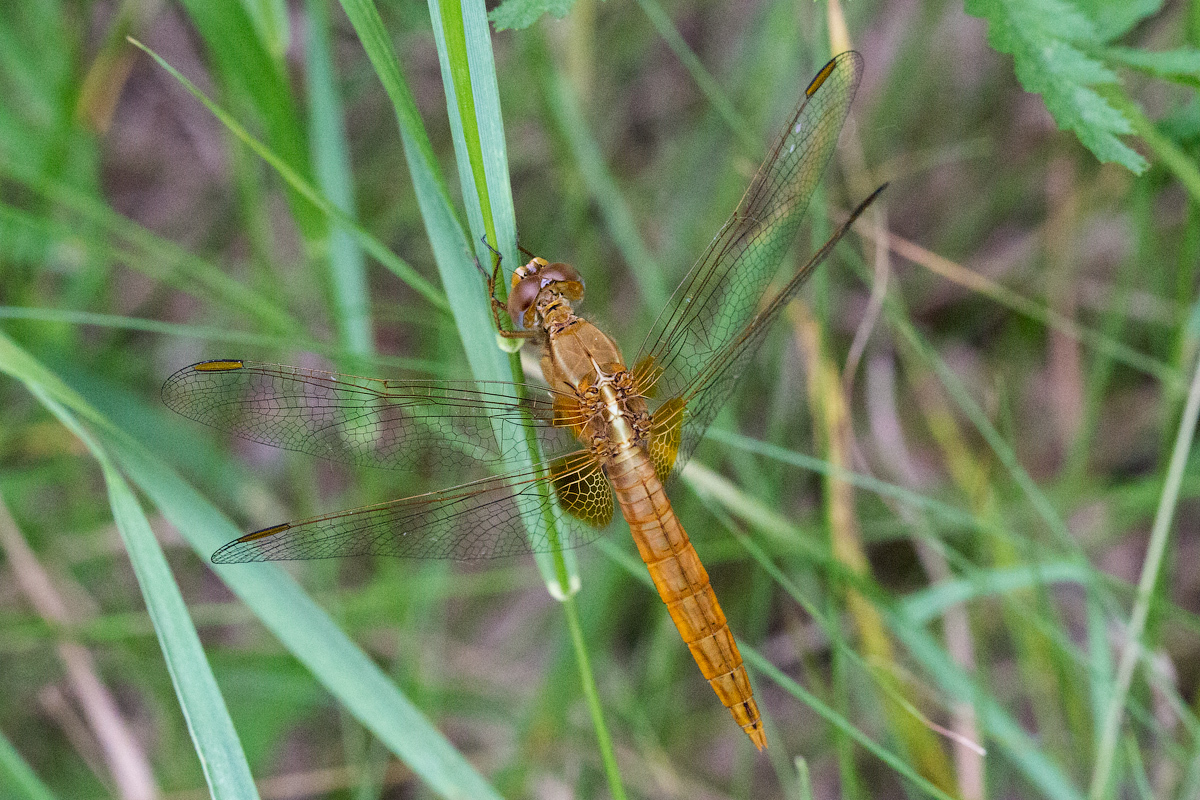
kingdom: Animalia
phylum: Arthropoda
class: Insecta
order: Odonata
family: Libellulidae
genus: Crocothemis
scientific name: Crocothemis erythraea
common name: Scarlet dragonfly
